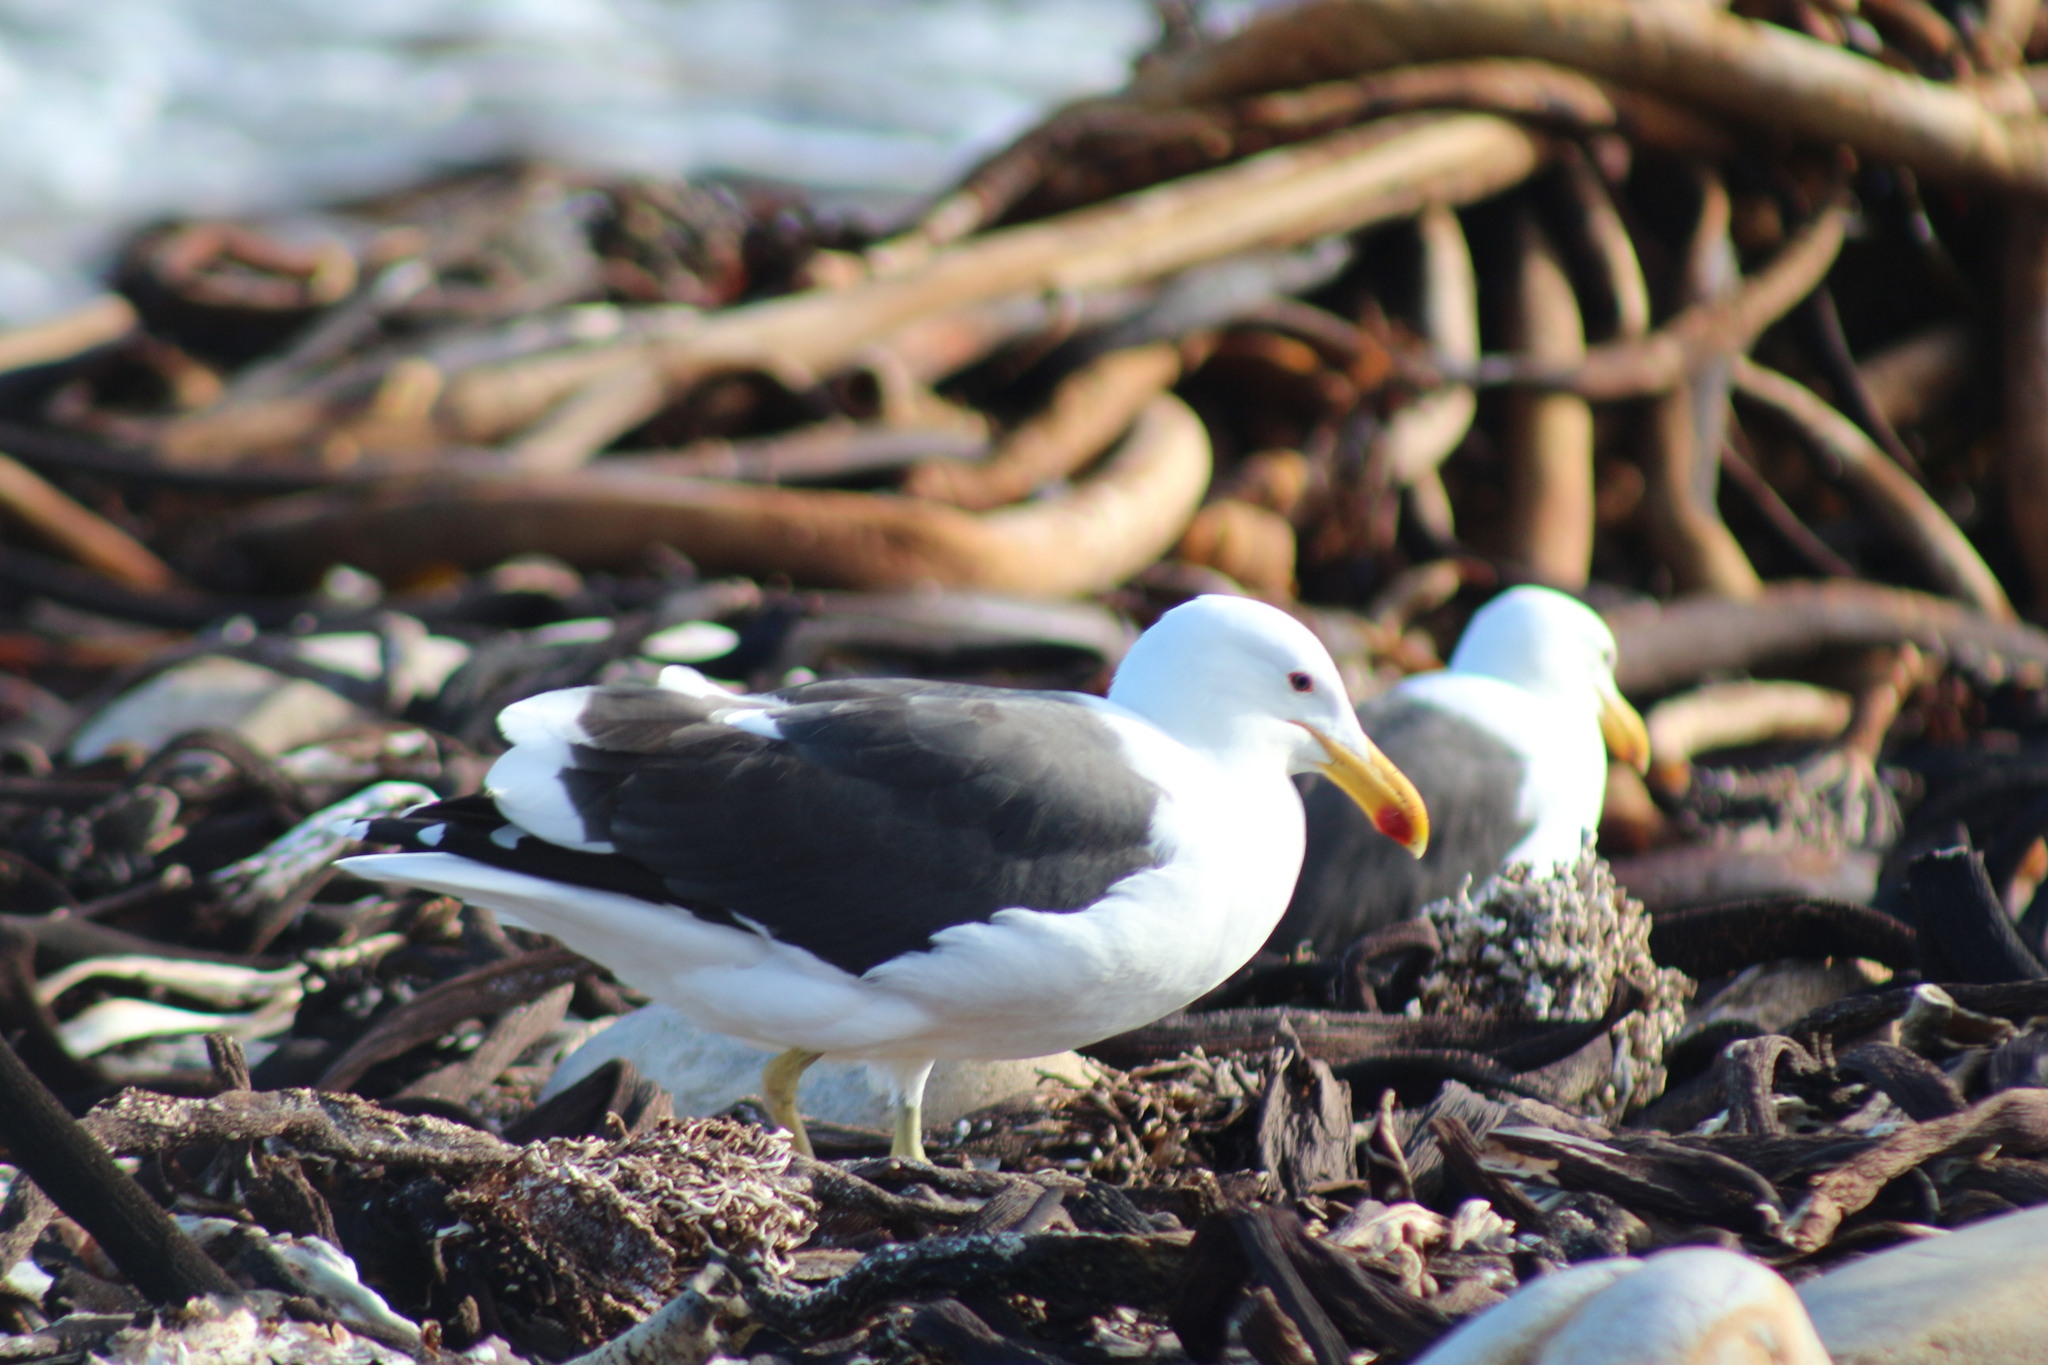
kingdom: Animalia
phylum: Chordata
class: Aves
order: Charadriiformes
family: Laridae
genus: Larus
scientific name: Larus dominicanus
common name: Kelp gull
